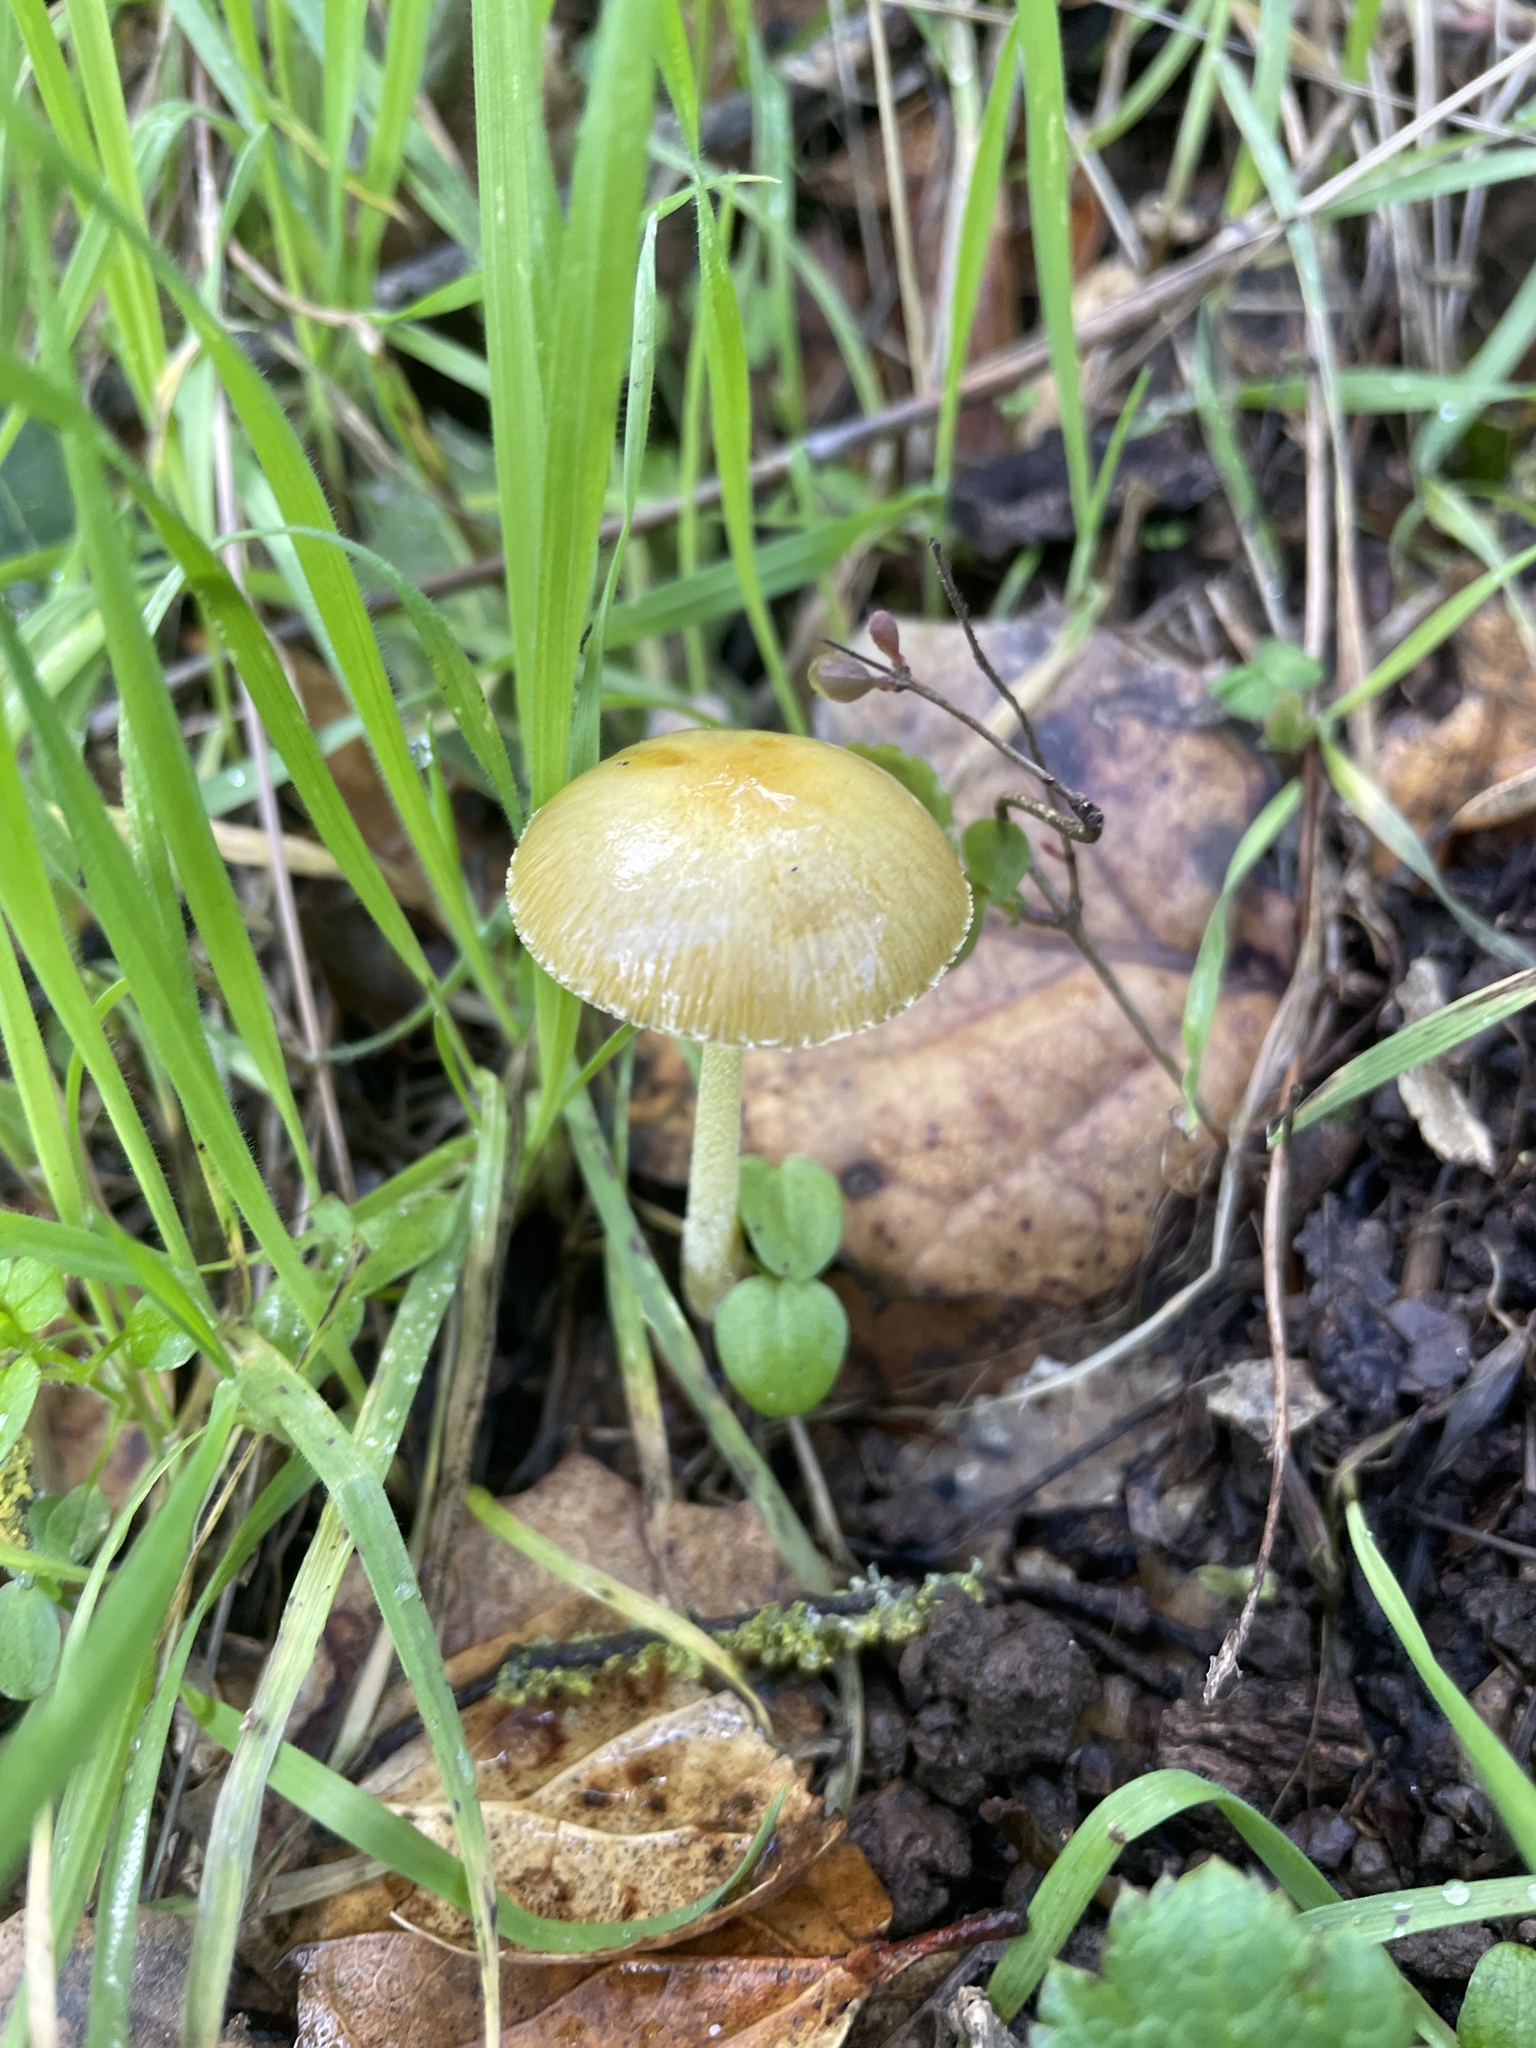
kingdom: Fungi
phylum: Basidiomycota
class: Agaricomycetes
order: Agaricales
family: Bolbitiaceae
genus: Bolbitius
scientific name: Bolbitius titubans
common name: Yellow fieldcap
